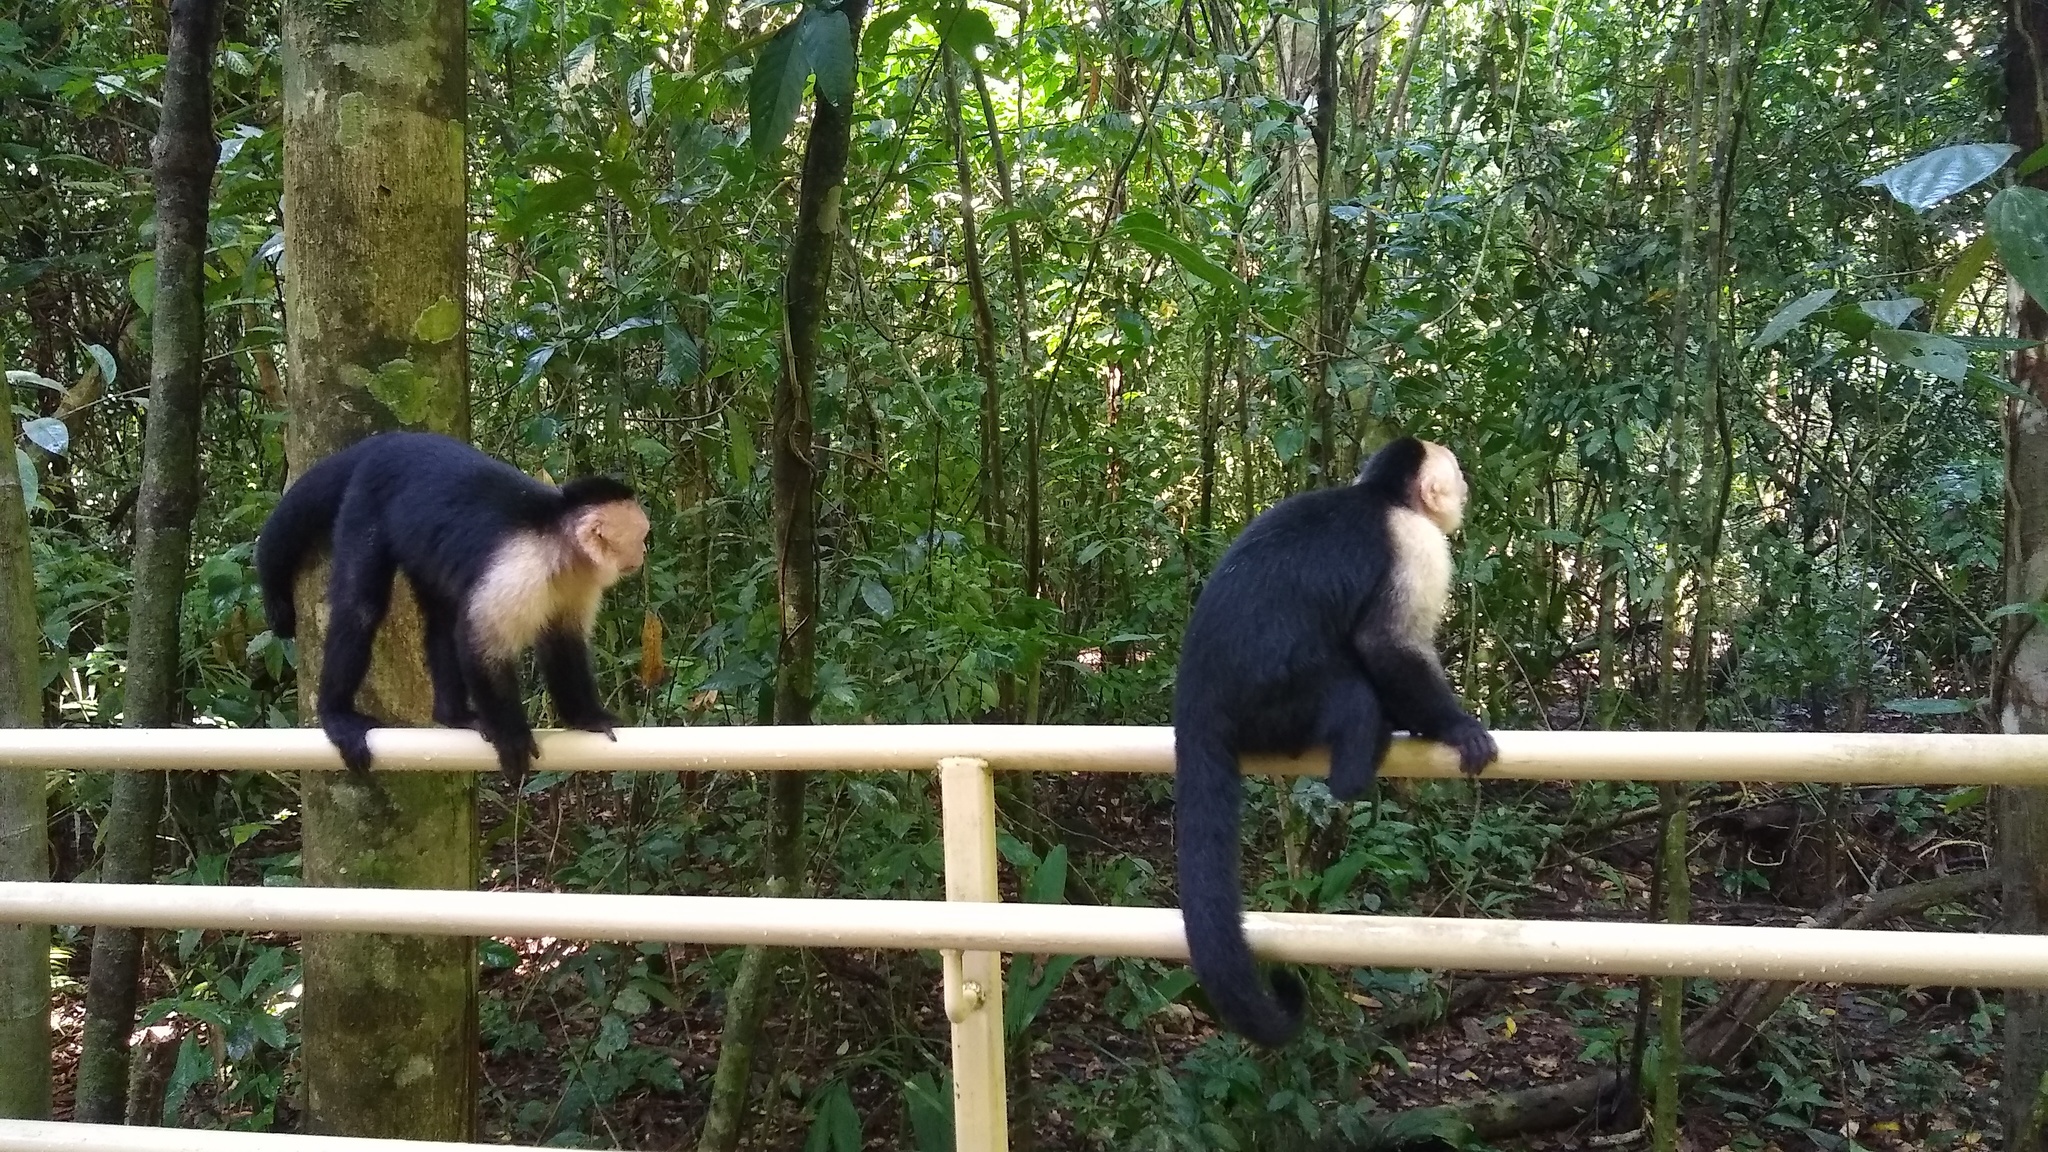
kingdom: Animalia
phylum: Chordata
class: Mammalia
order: Primates
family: Cebidae
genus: Cebus
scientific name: Cebus imitator
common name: Panamanian white-faced capuchin
